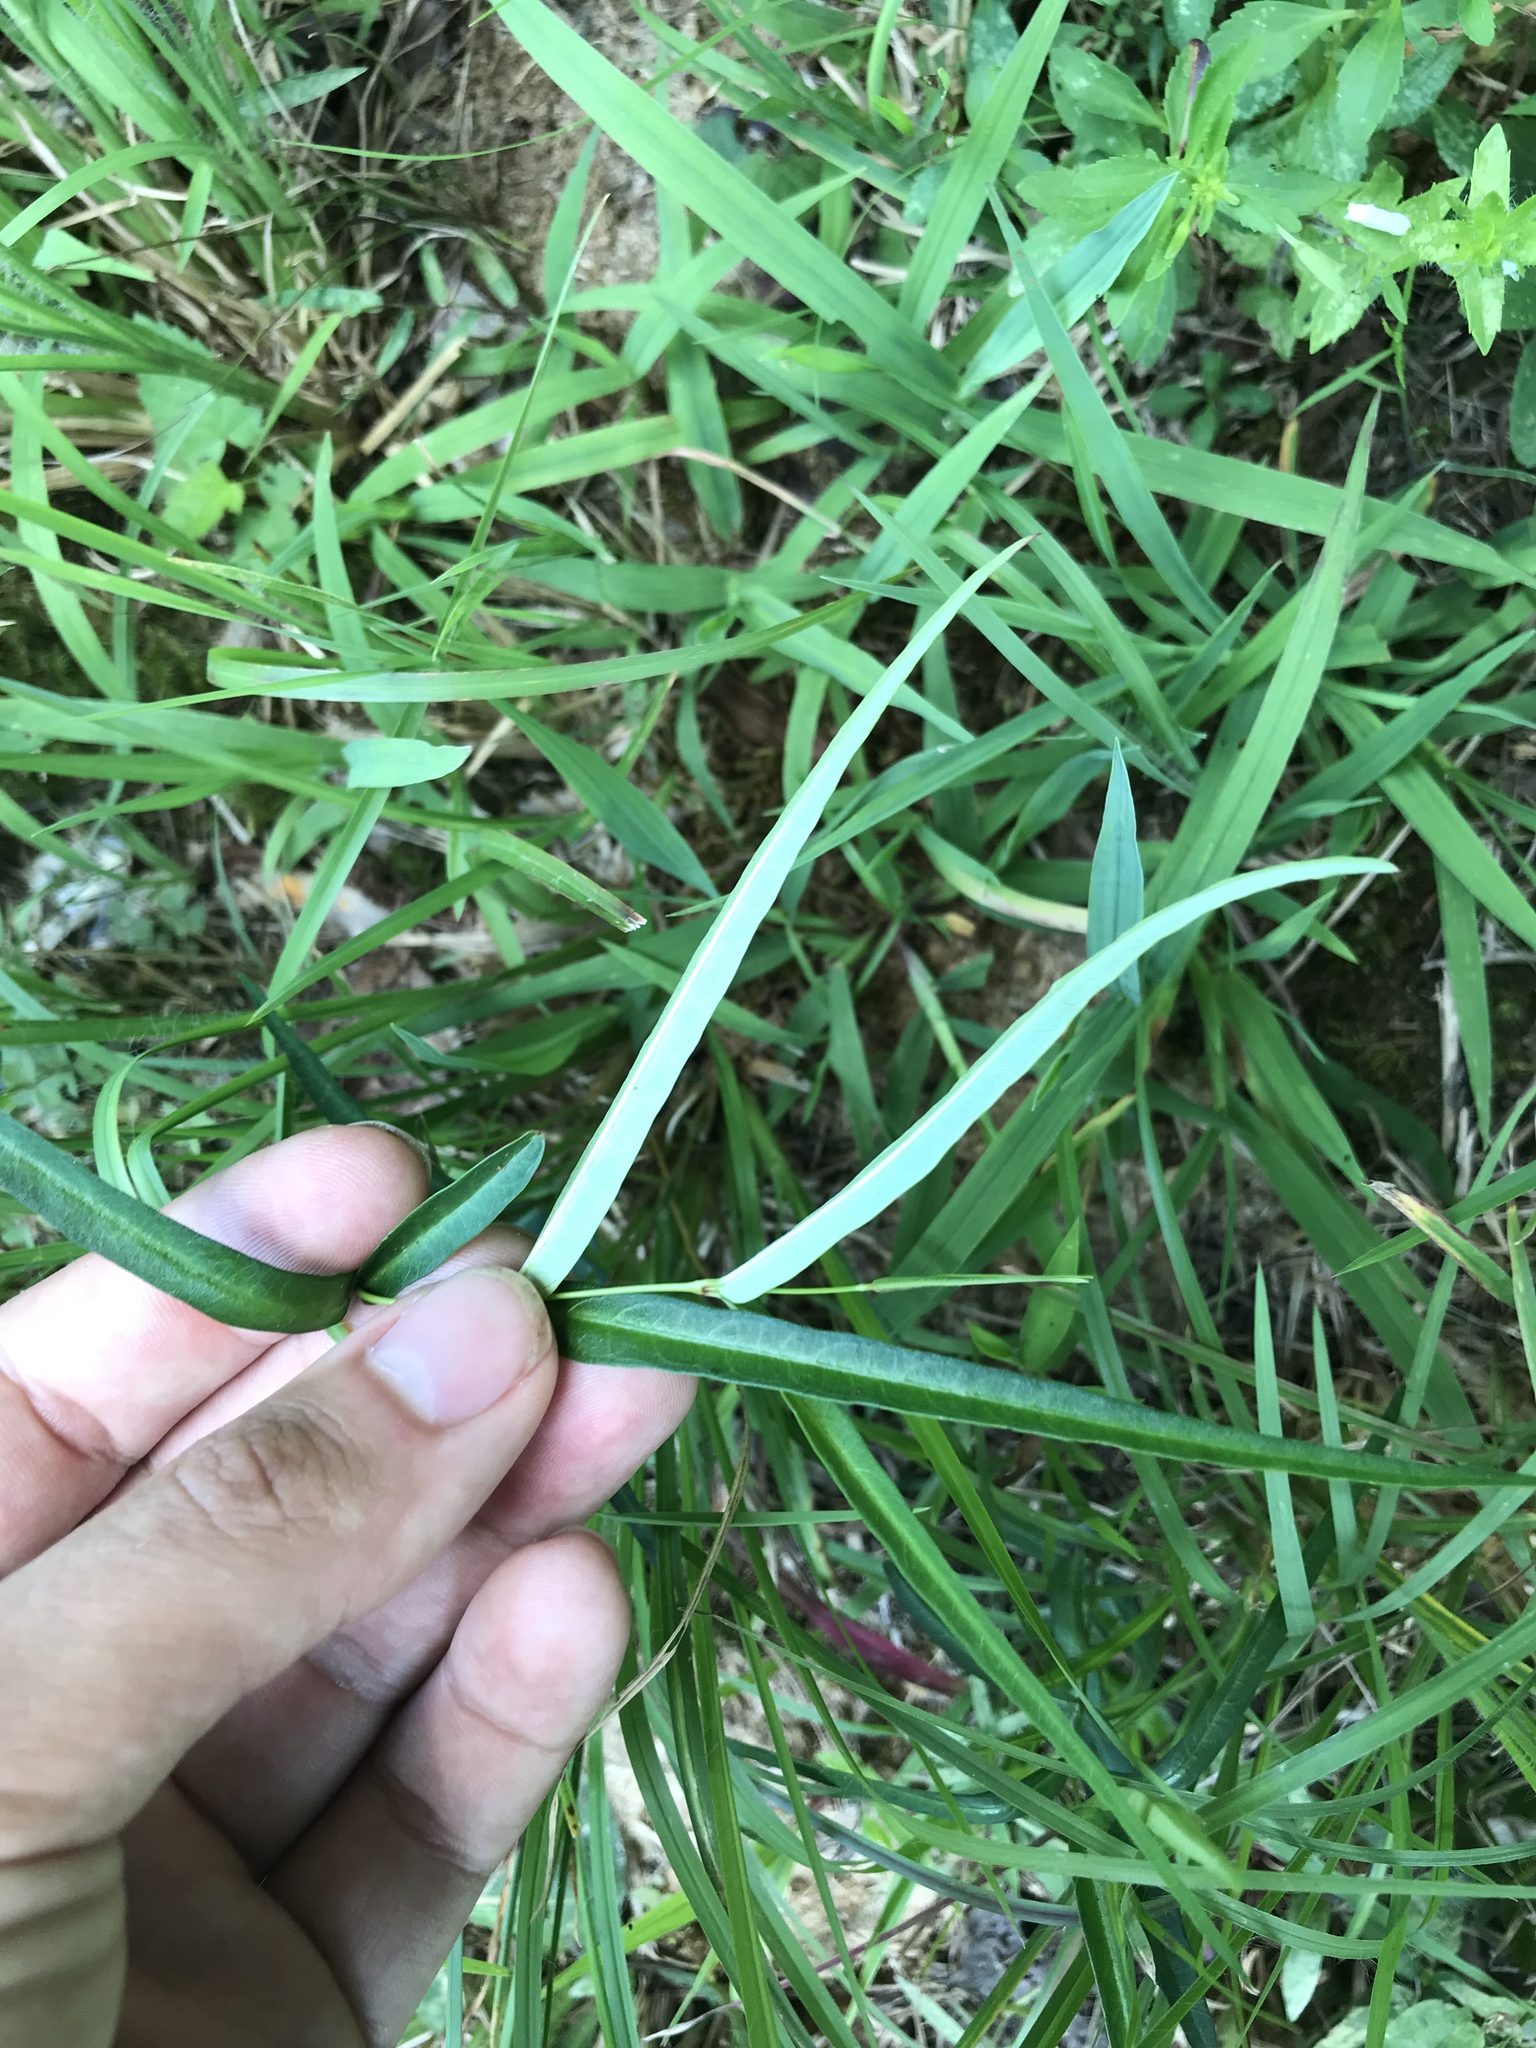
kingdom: Plantae
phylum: Tracheophyta
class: Magnoliopsida
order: Gentianales
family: Apocynaceae
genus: Thyrsanthella
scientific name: Thyrsanthella difformis
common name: Climbing dogbane
